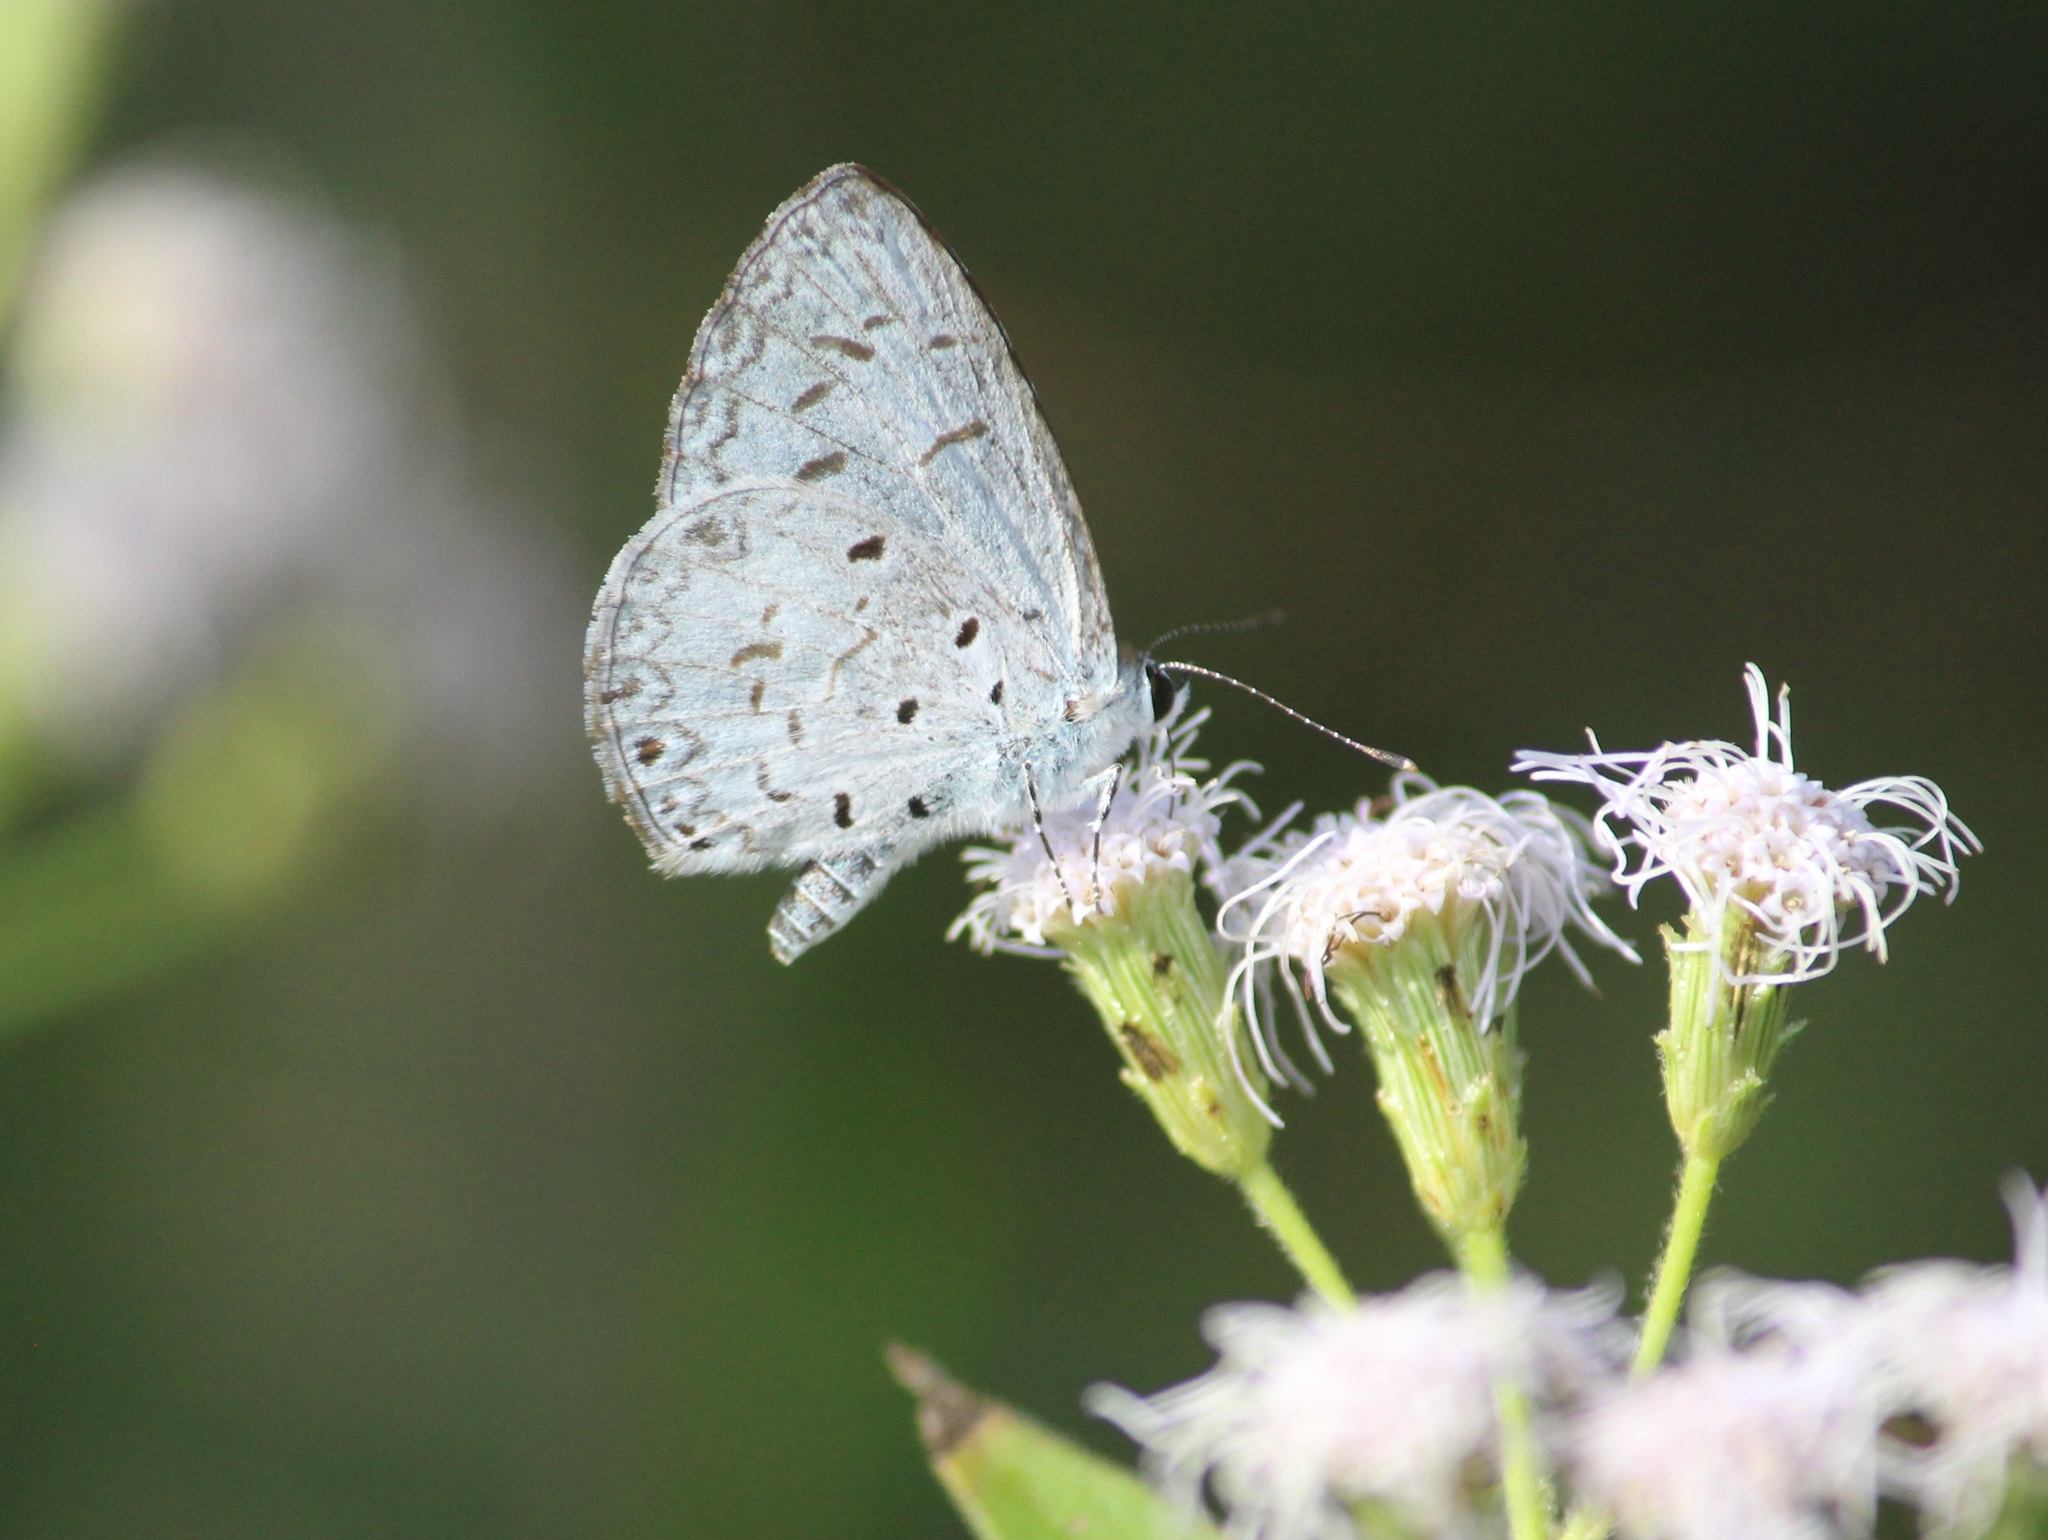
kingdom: Animalia
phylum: Arthropoda
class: Insecta
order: Lepidoptera
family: Lycaenidae
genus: Acytolepis
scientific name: Acytolepis puspa
